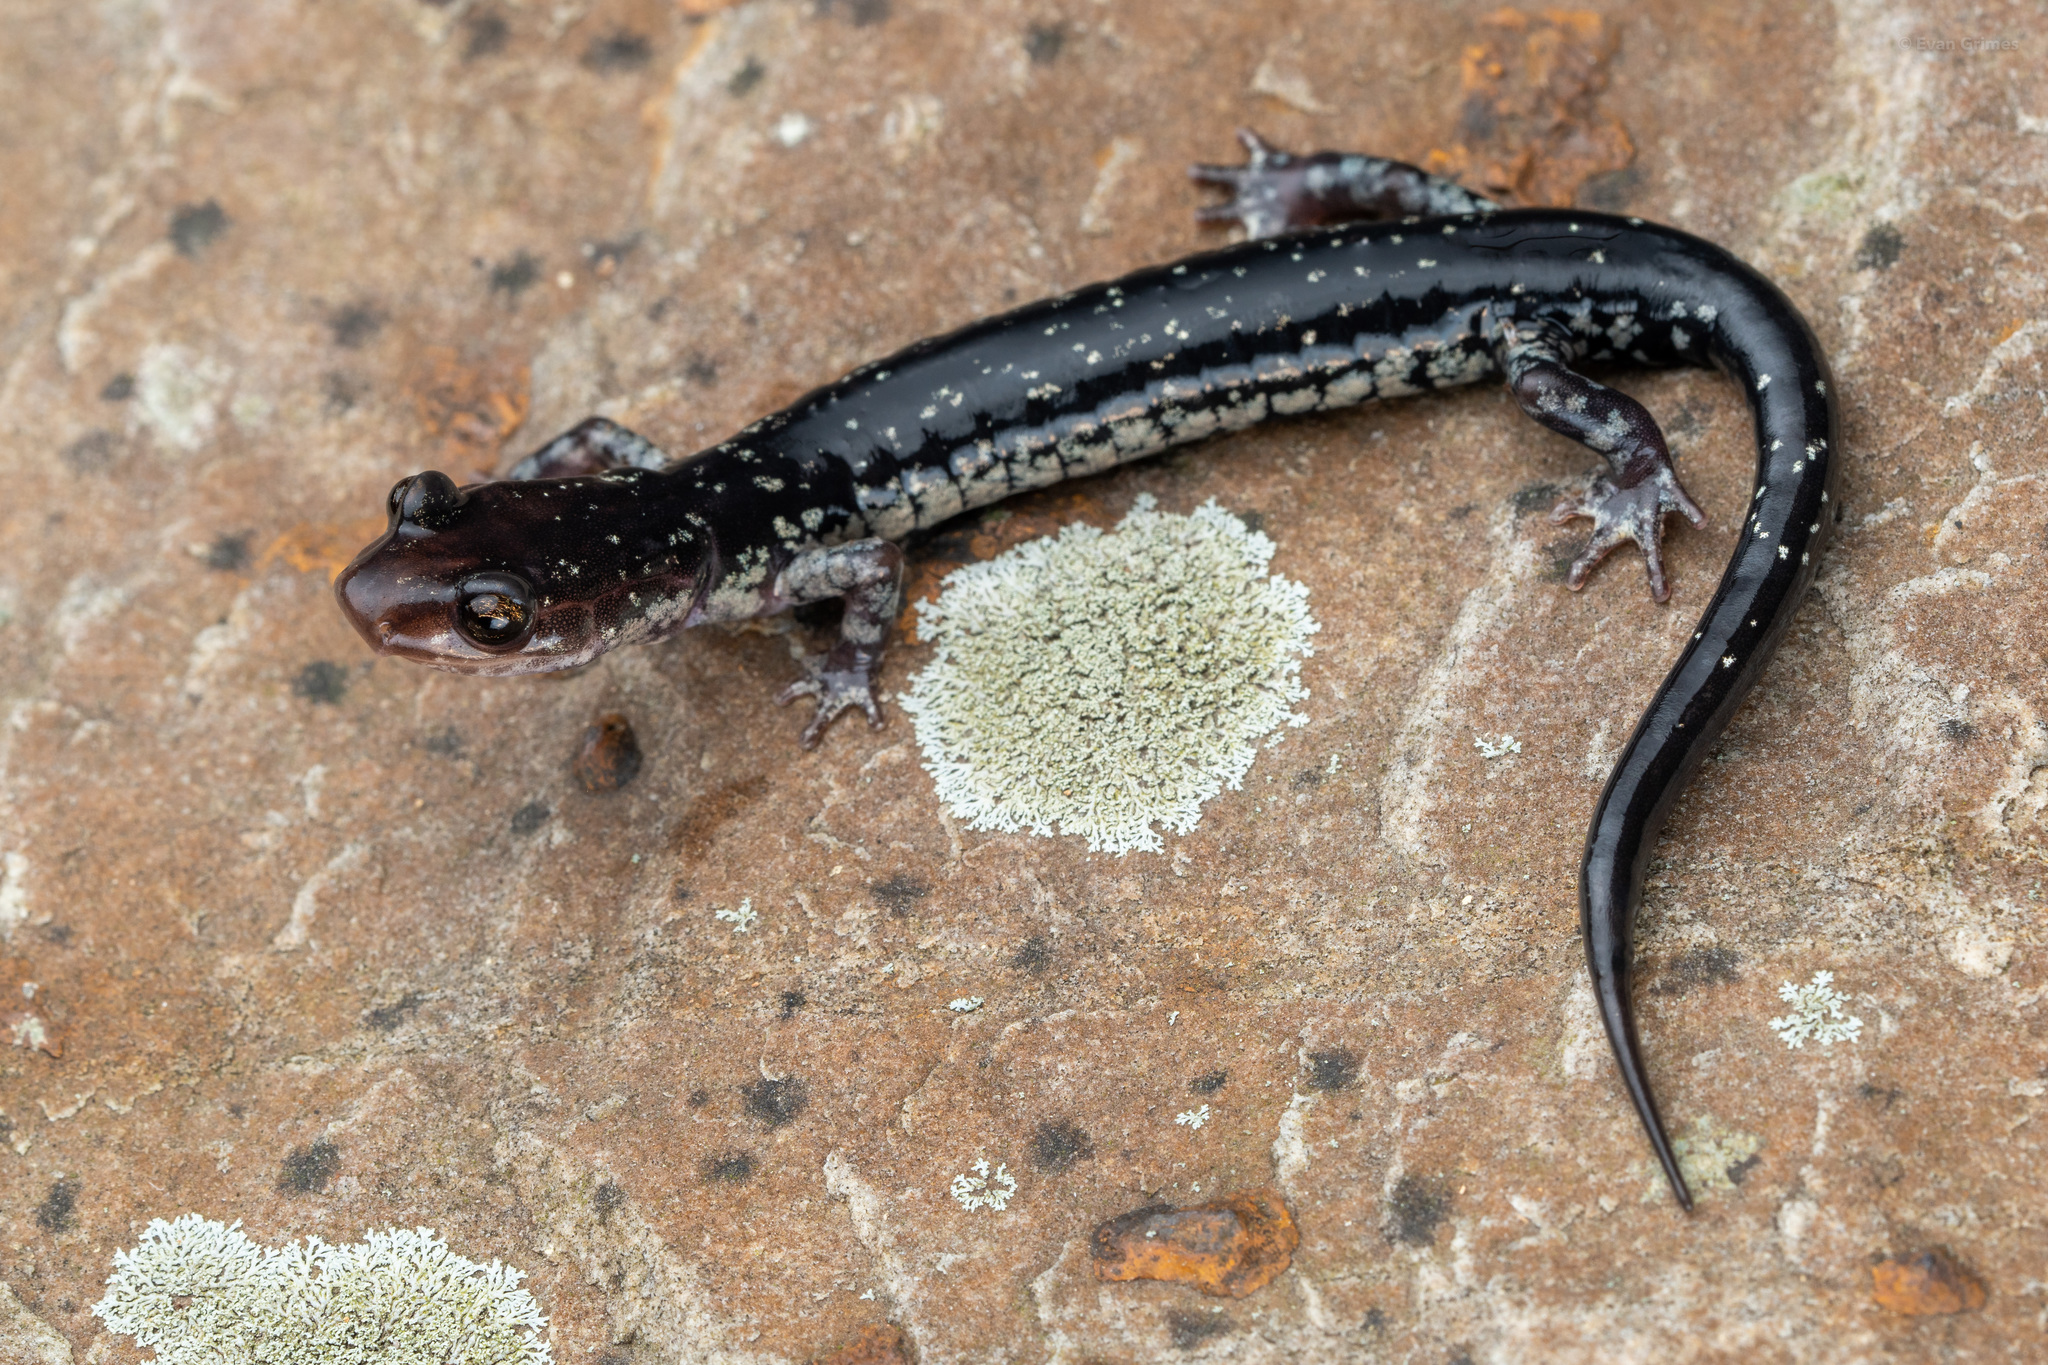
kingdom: Animalia
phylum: Chordata
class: Amphibia
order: Caudata
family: Plethodontidae
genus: Plethodon
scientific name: Plethodon ouachitae
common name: Rich mountain salamander
